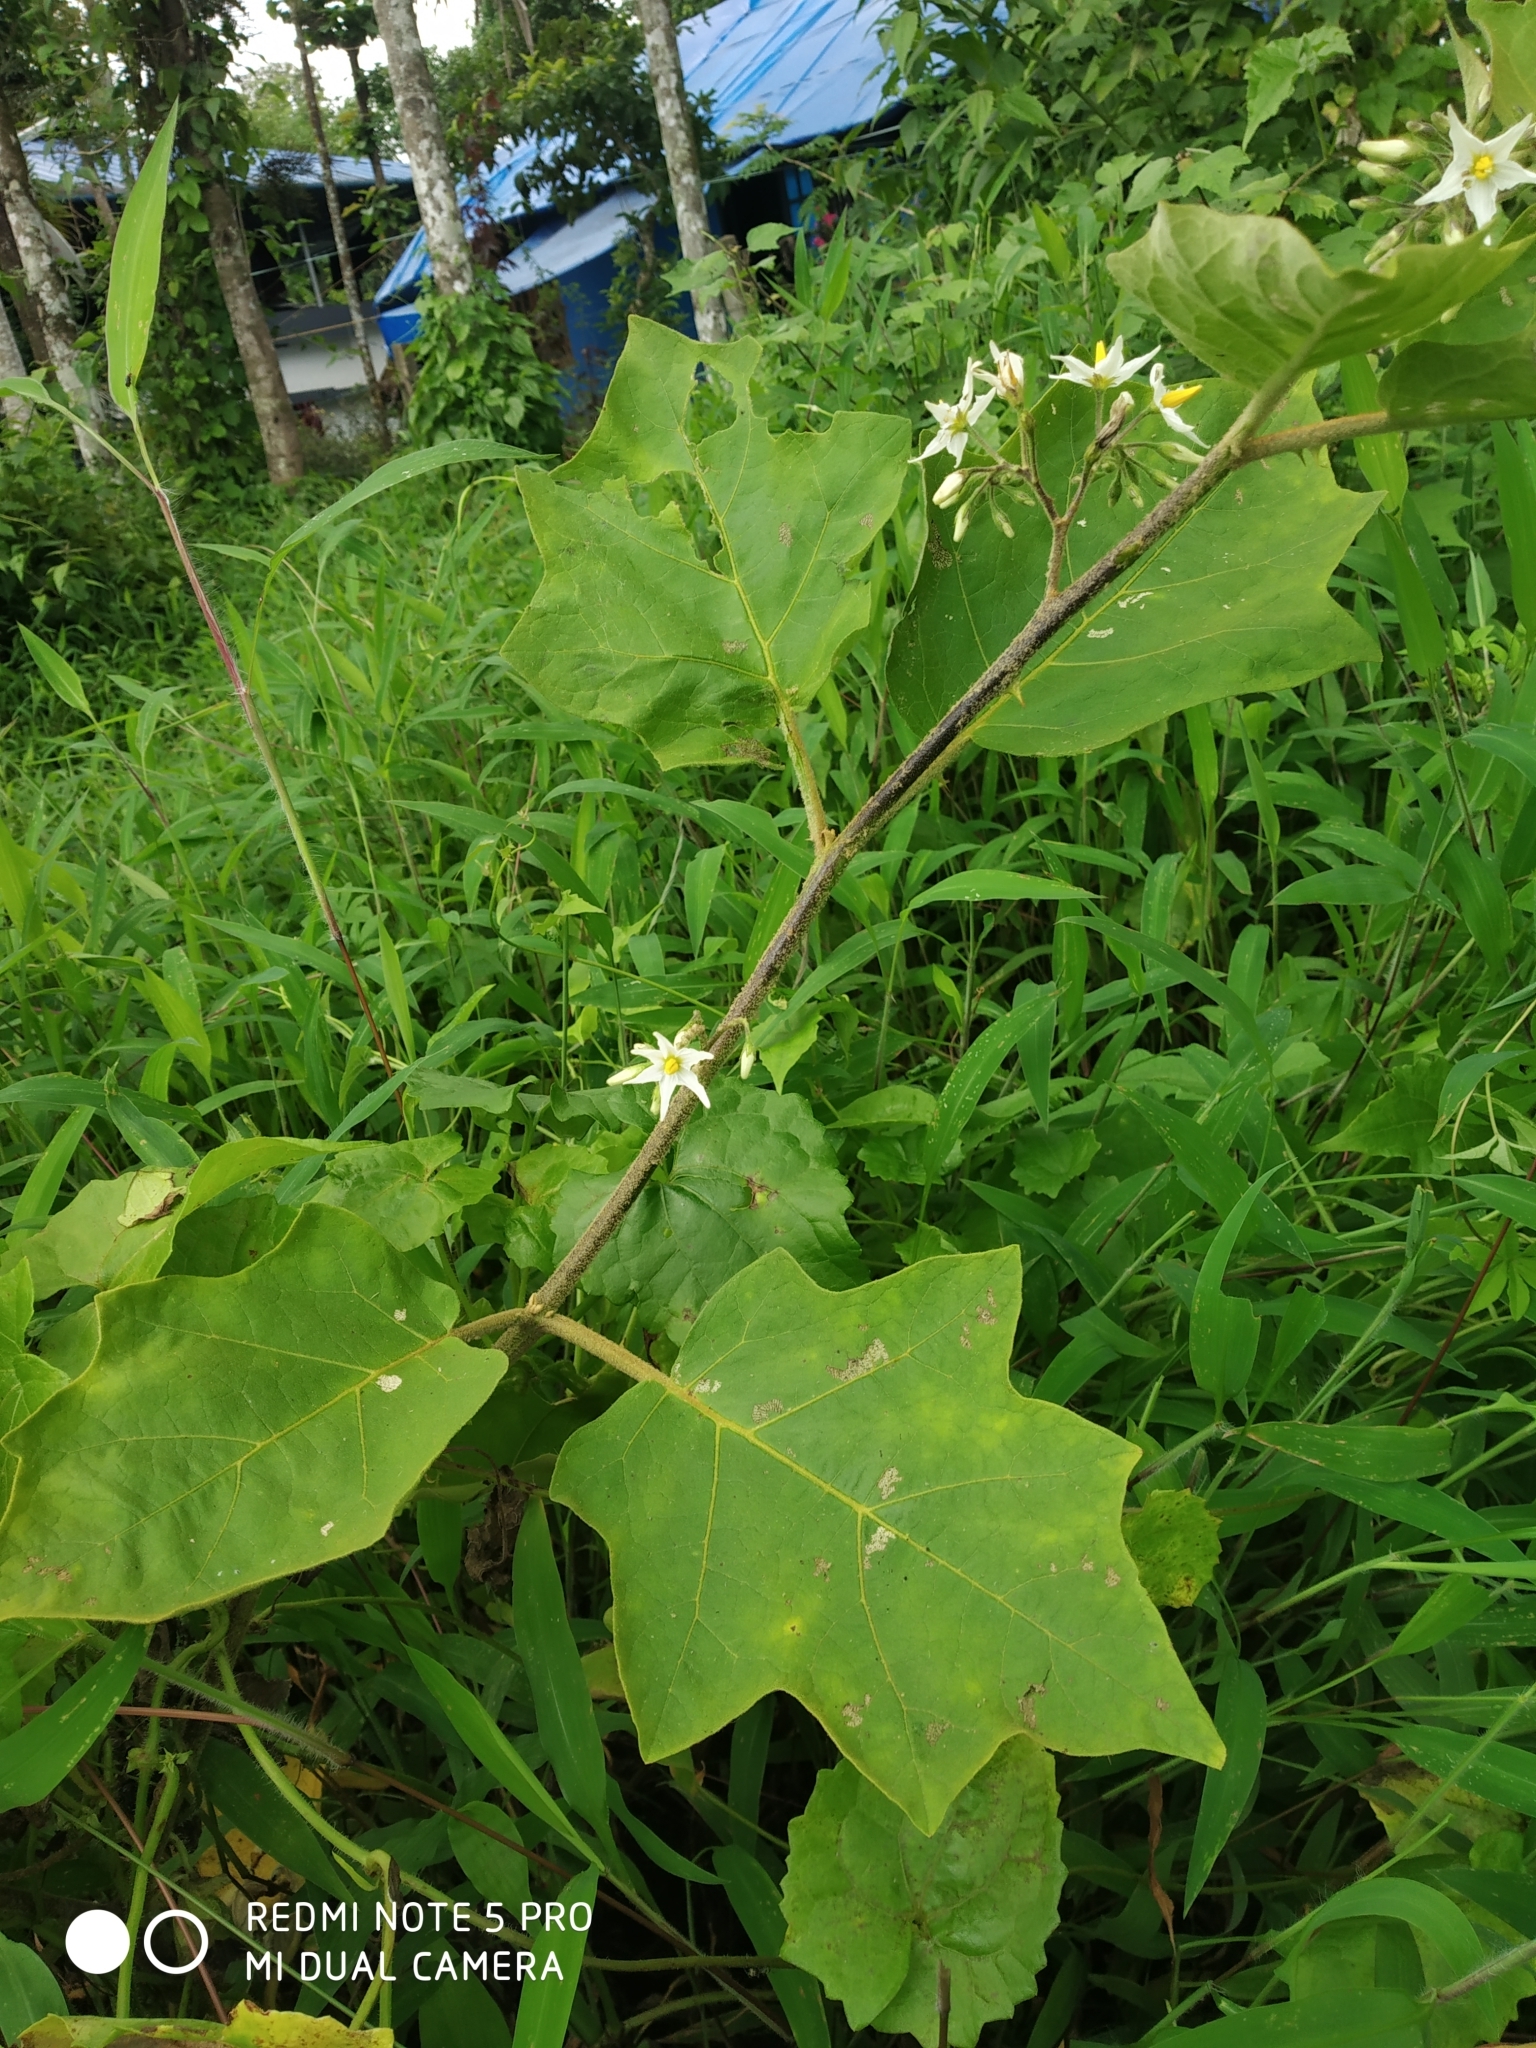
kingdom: Plantae
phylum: Tracheophyta
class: Magnoliopsida
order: Solanales
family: Solanaceae
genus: Solanum
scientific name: Solanum torvum
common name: Turkey berry
